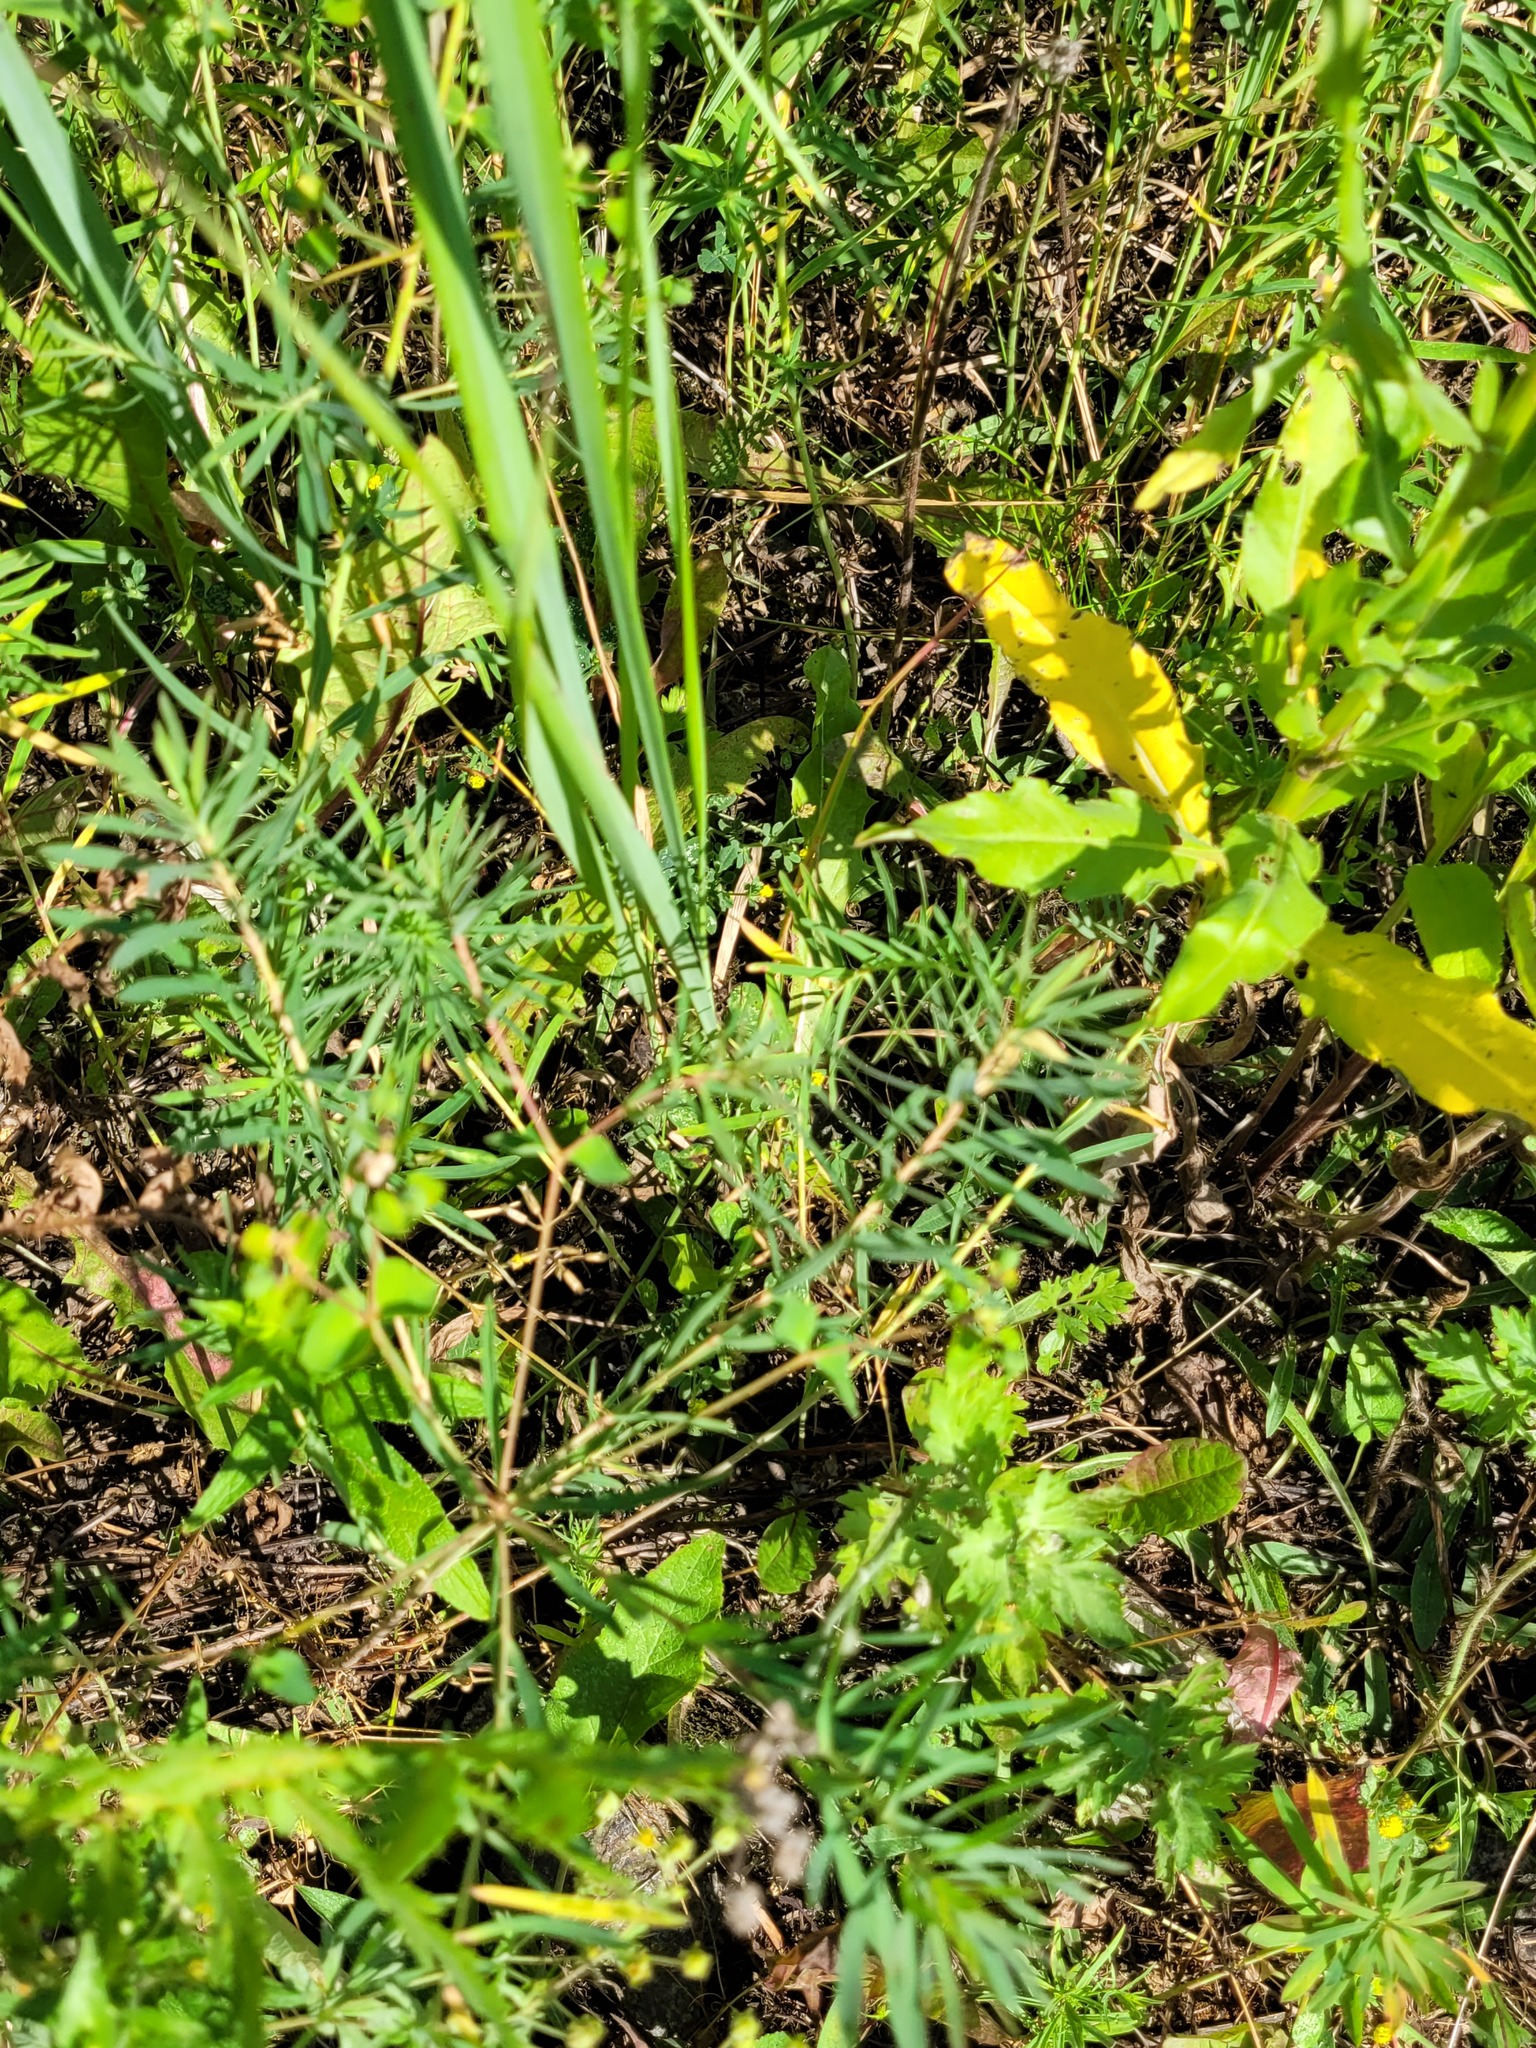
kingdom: Plantae
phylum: Tracheophyta
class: Magnoliopsida
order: Malpighiales
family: Euphorbiaceae
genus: Euphorbia
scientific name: Euphorbia virgata
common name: Leafy spurge
